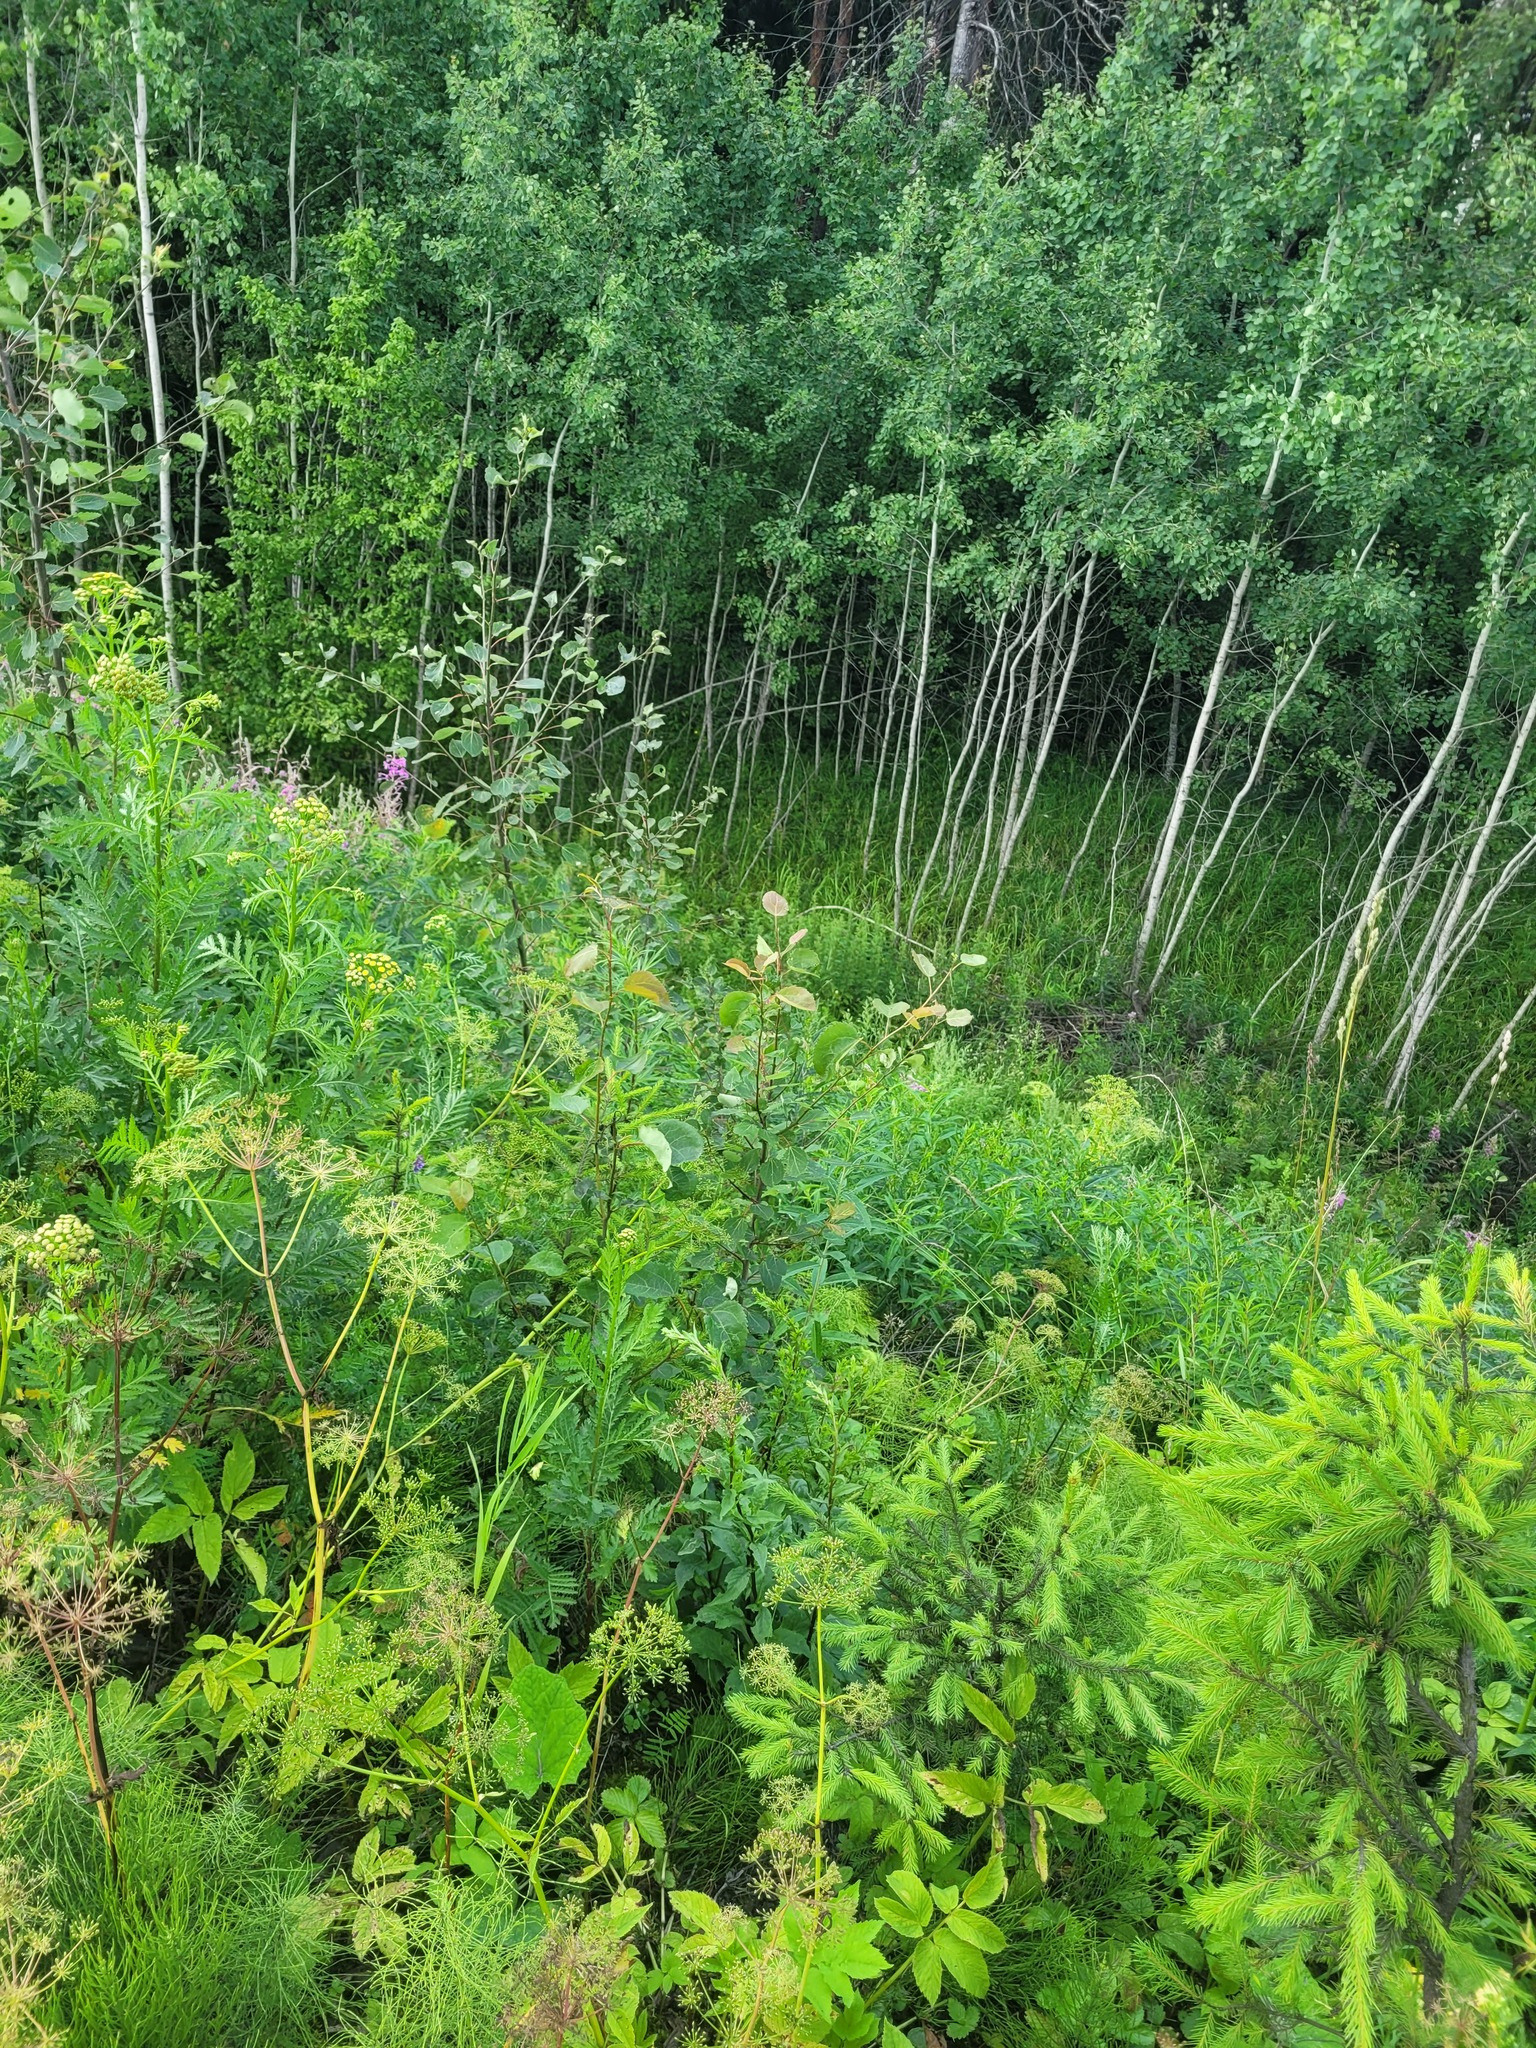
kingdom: Plantae
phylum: Tracheophyta
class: Magnoliopsida
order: Malpighiales
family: Salicaceae
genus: Populus
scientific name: Populus tremula
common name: European aspen
